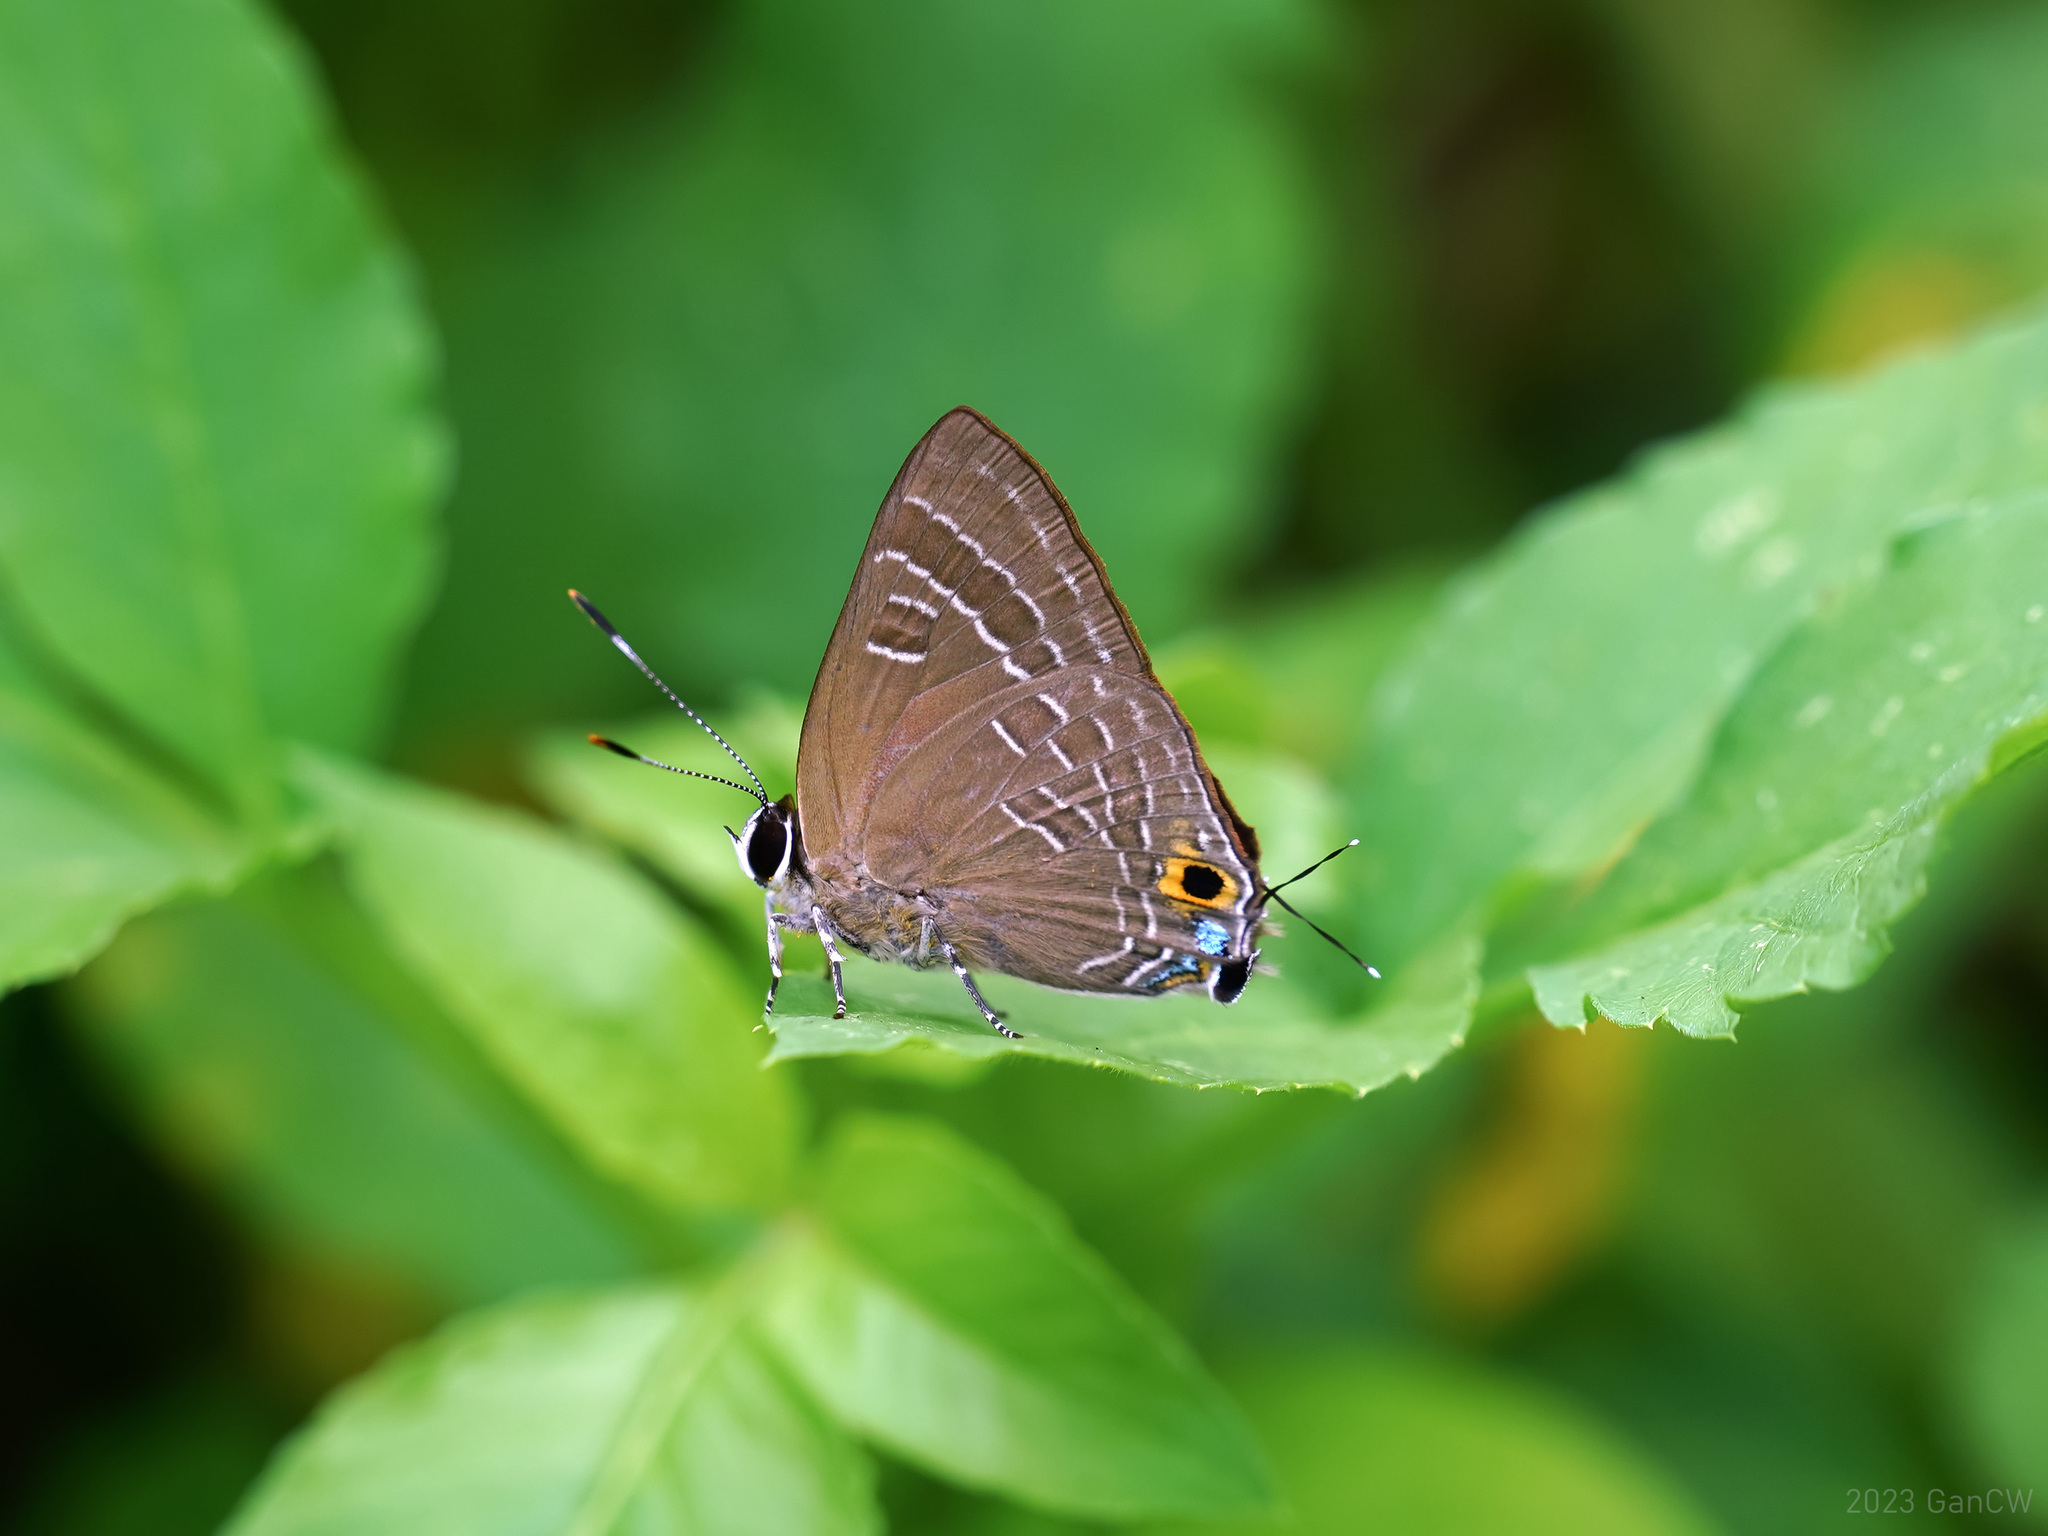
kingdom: Animalia
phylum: Arthropoda
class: Insecta
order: Lepidoptera
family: Lycaenidae
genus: Deudorix
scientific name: Deudorix epijarbas
